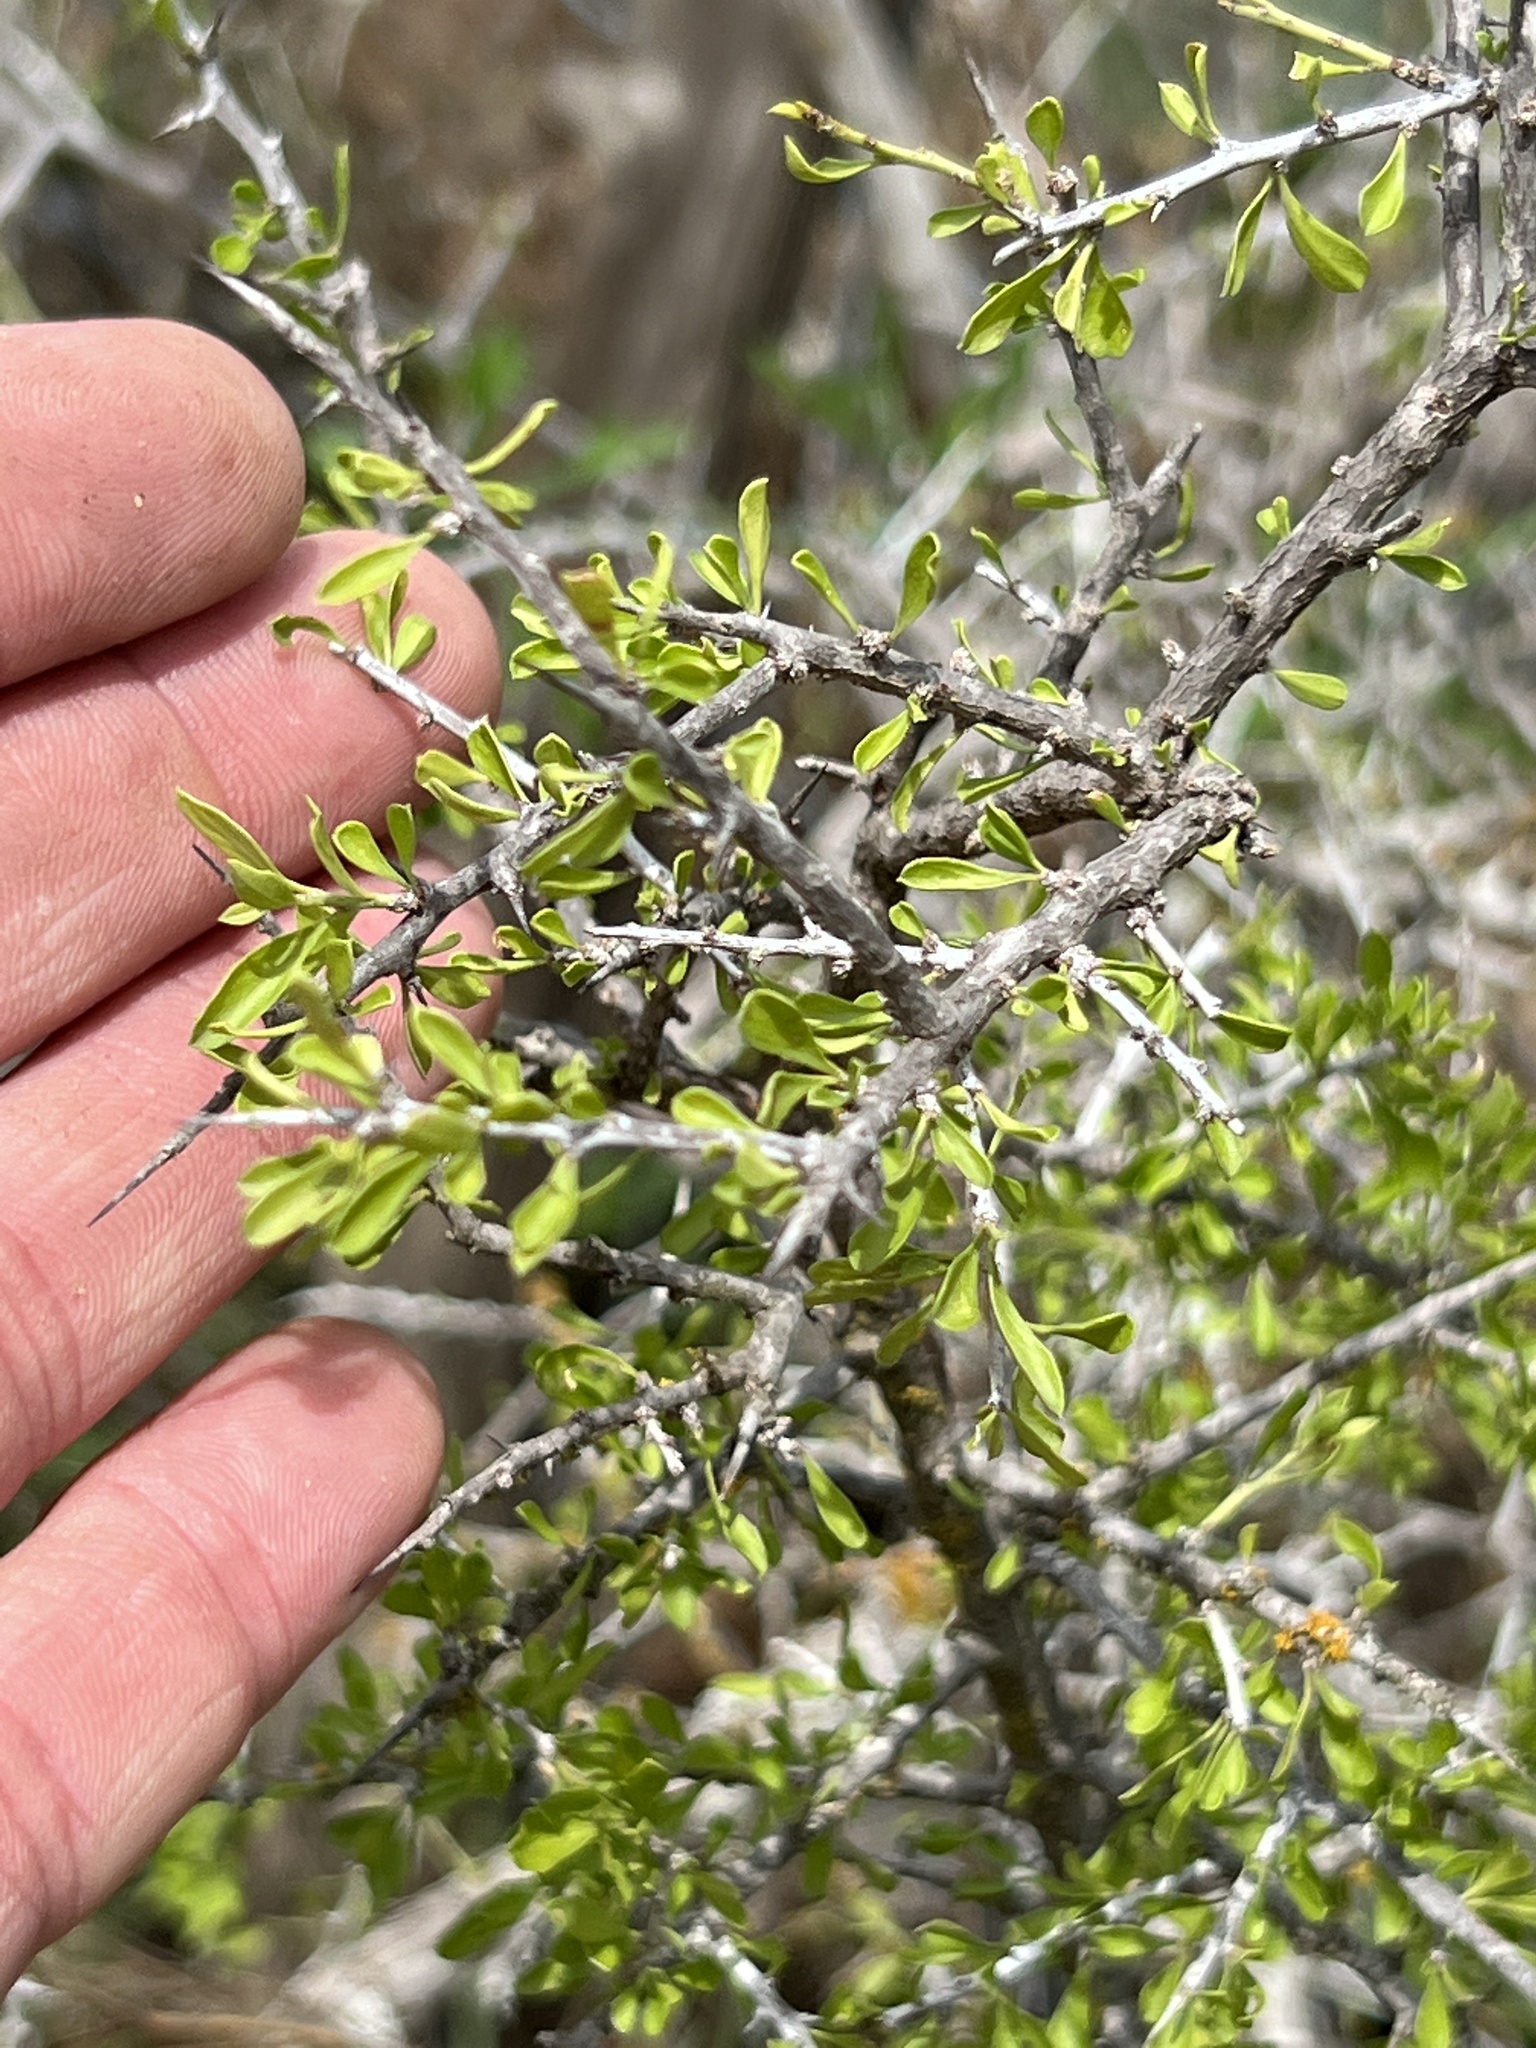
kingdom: Plantae
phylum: Tracheophyta
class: Magnoliopsida
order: Rosales
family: Rhamnaceae
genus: Condalia
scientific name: Condalia viridis
